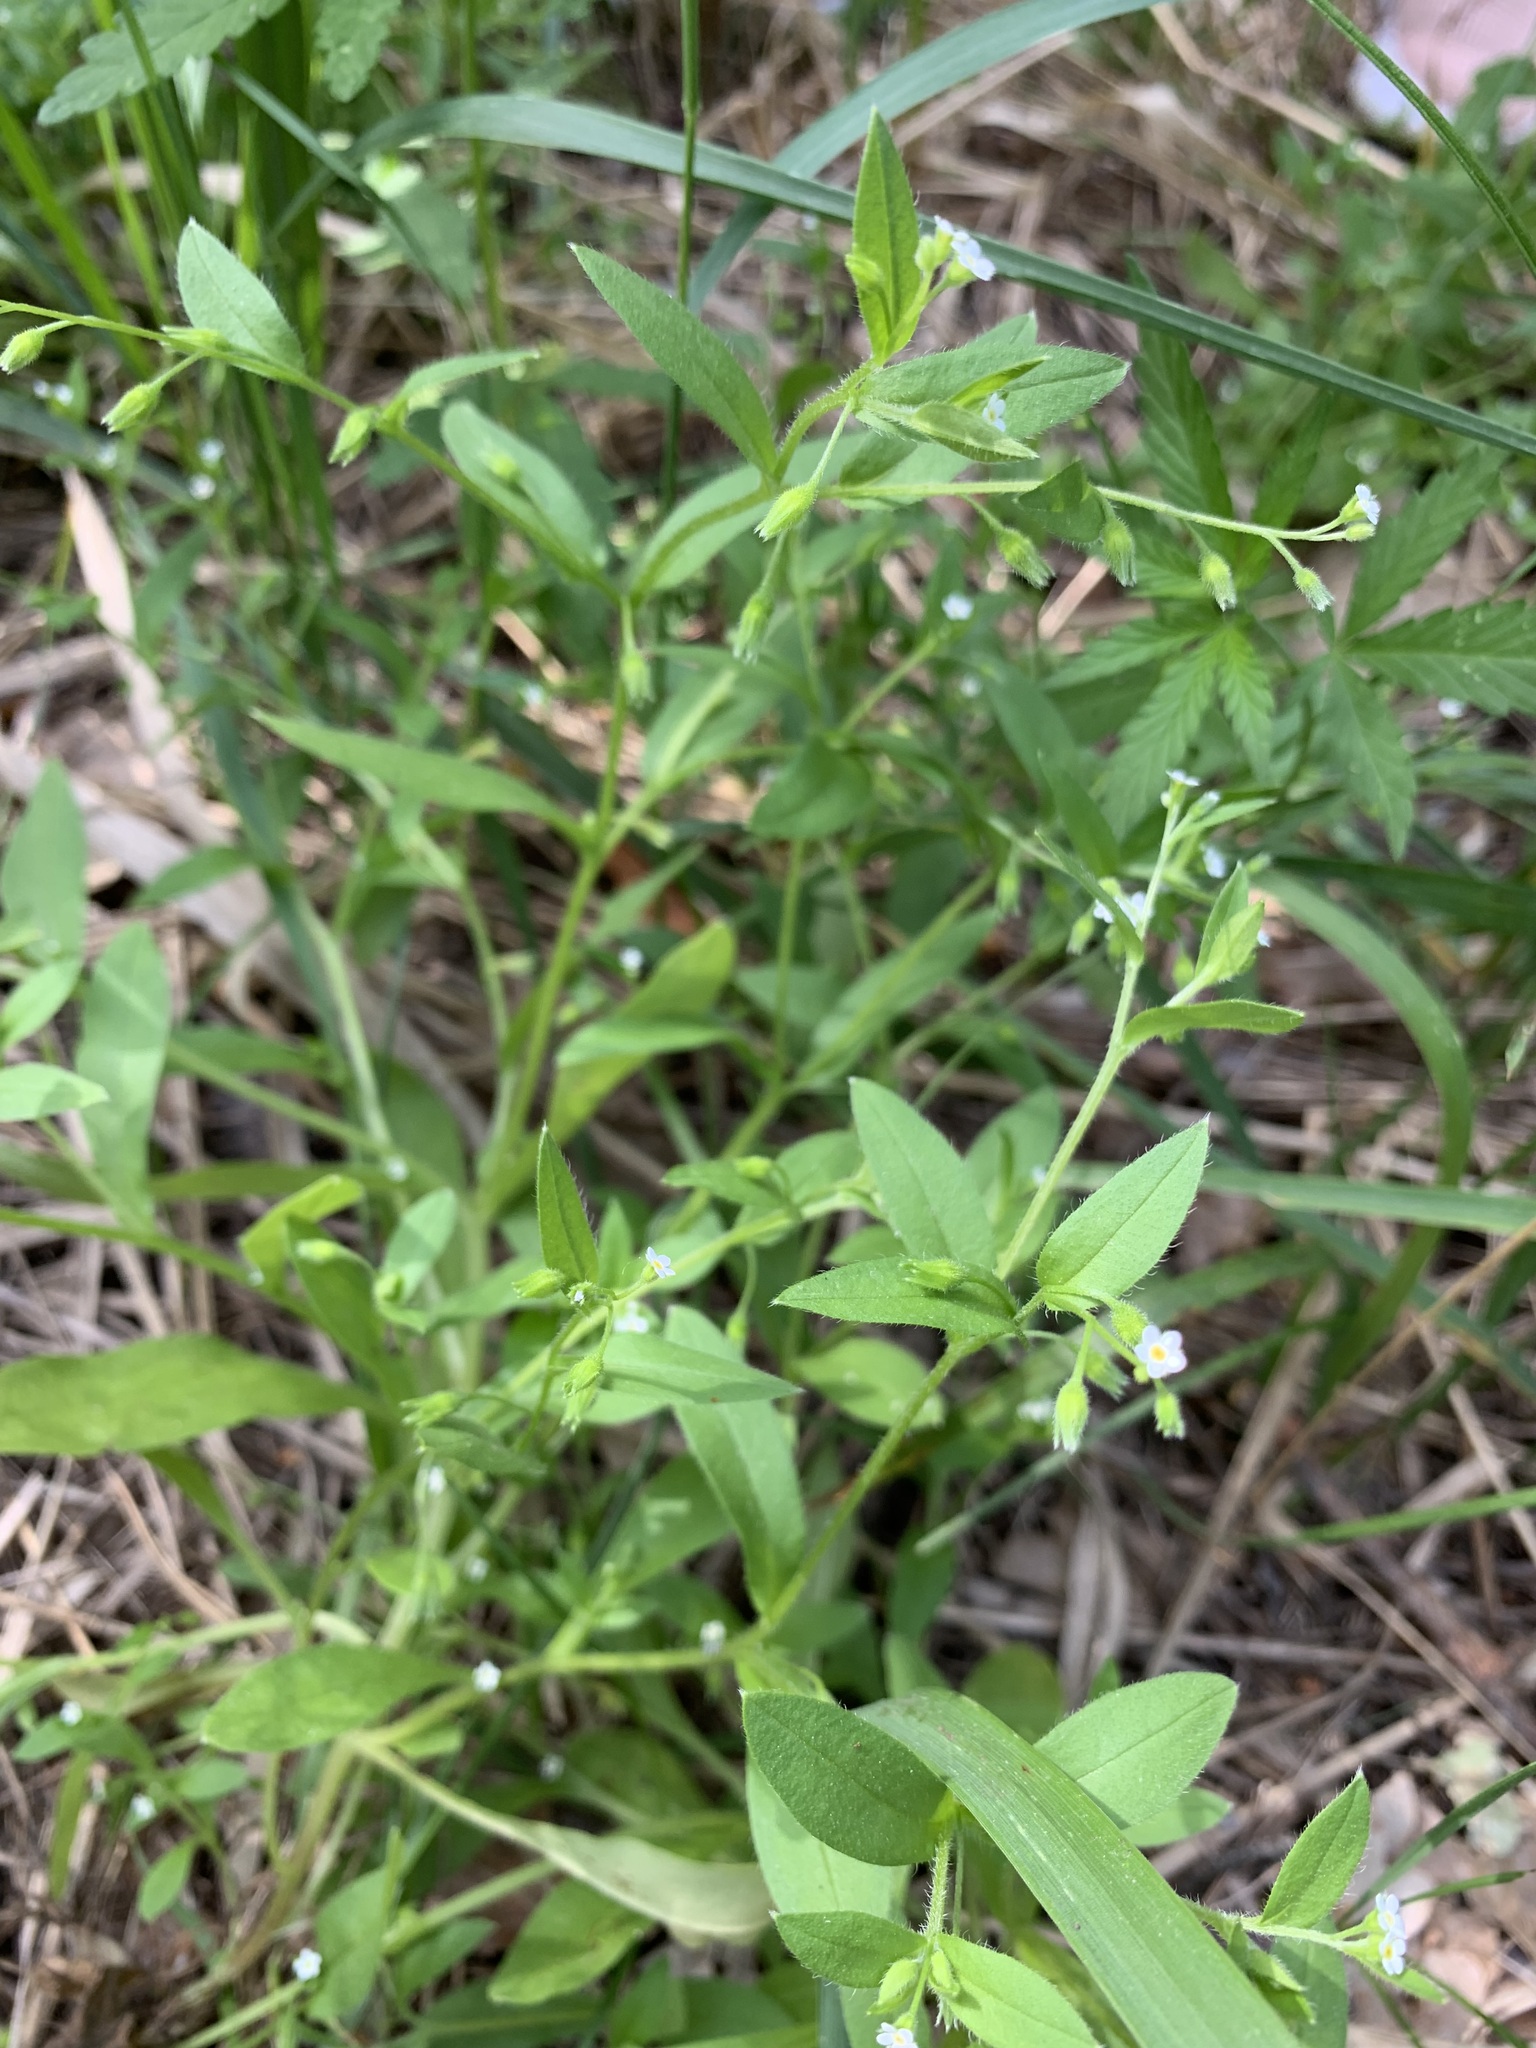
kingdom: Plantae
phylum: Tracheophyta
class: Magnoliopsida
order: Boraginales
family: Boraginaceae
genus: Myosotis
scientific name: Myosotis sparsiflora
